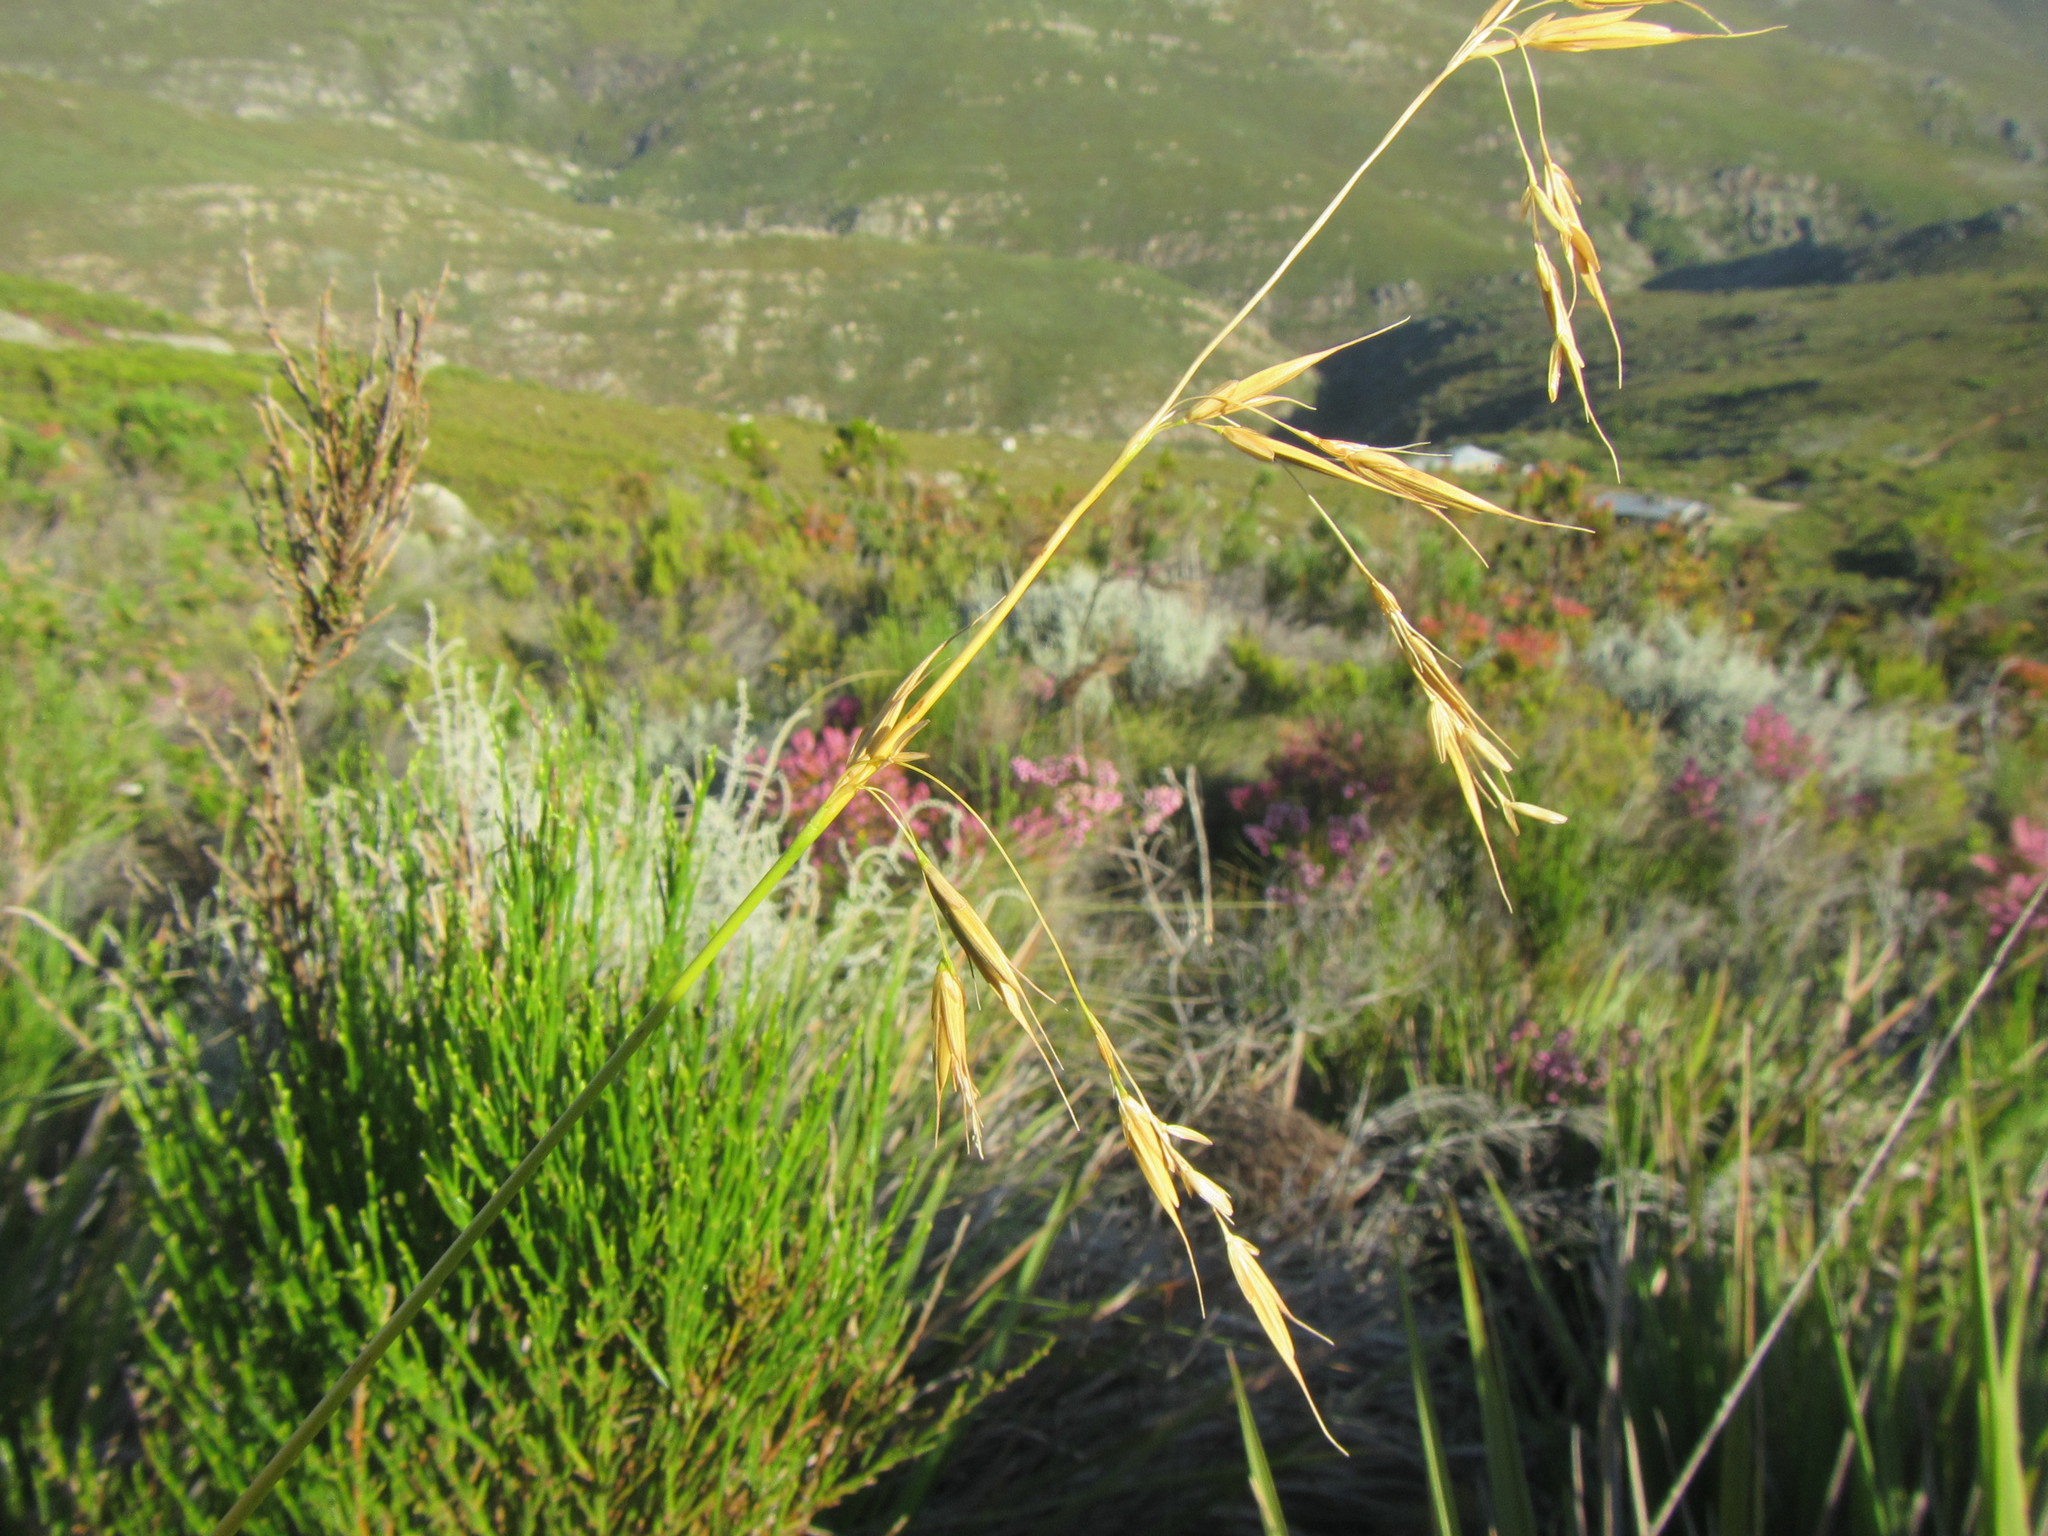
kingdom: Plantae
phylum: Tracheophyta
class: Liliopsida
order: Poales
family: Poaceae
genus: Ehrharta
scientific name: Ehrharta dura
